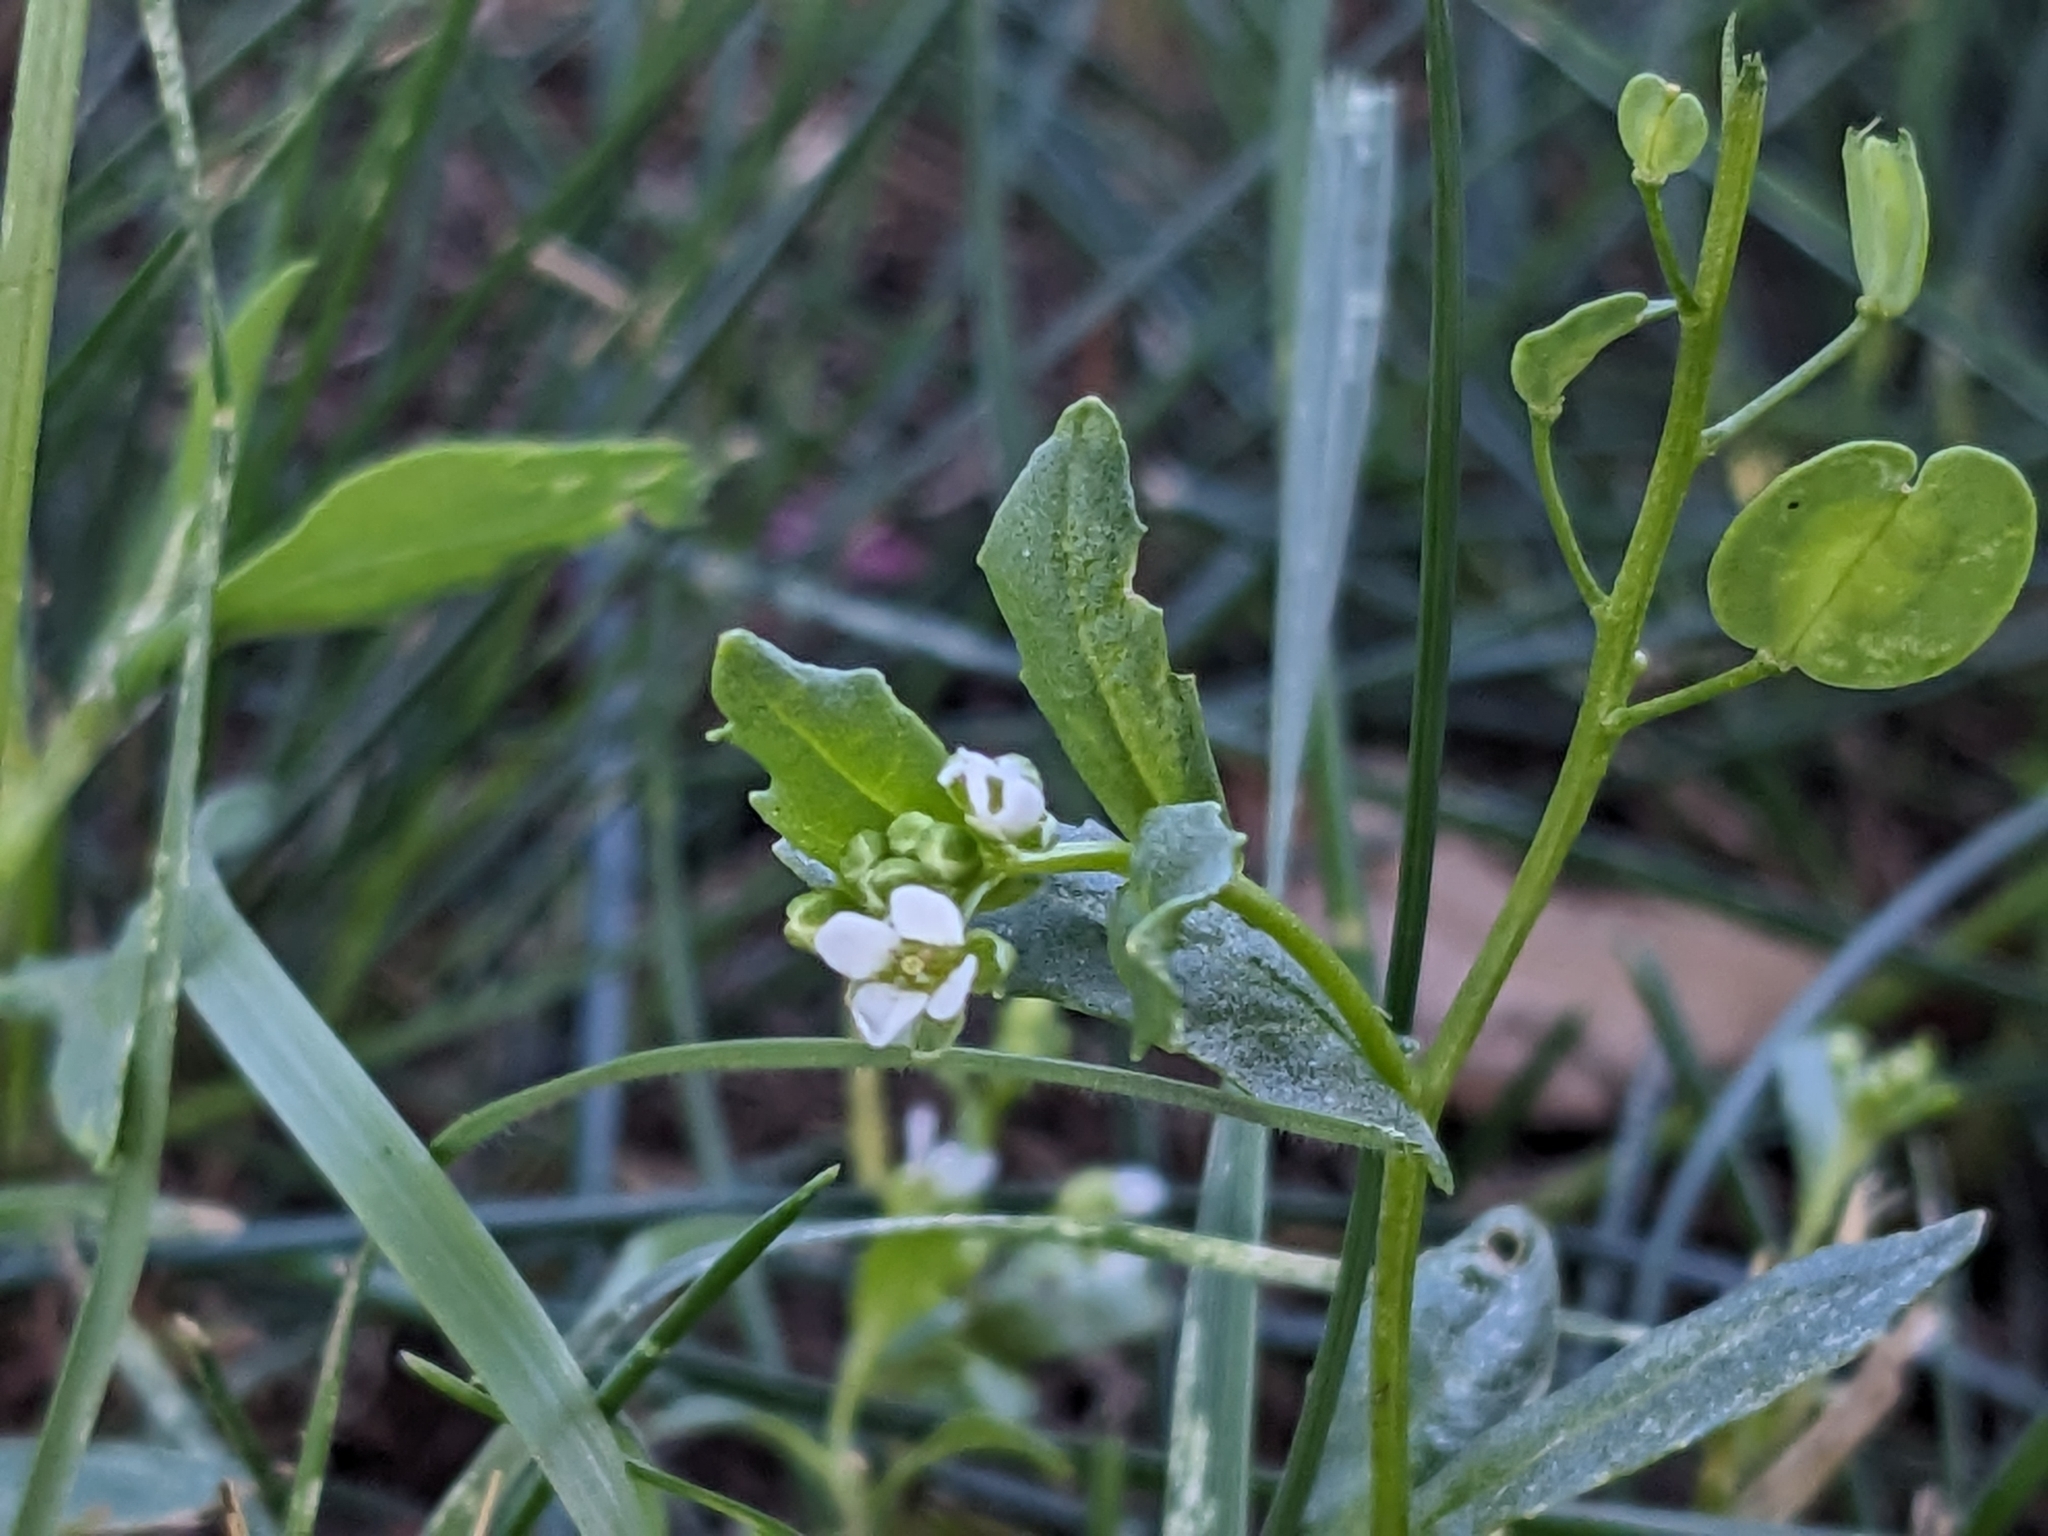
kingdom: Plantae
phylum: Tracheophyta
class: Magnoliopsida
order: Brassicales
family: Brassicaceae
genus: Thlaspi
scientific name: Thlaspi arvense
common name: Field pennycress
